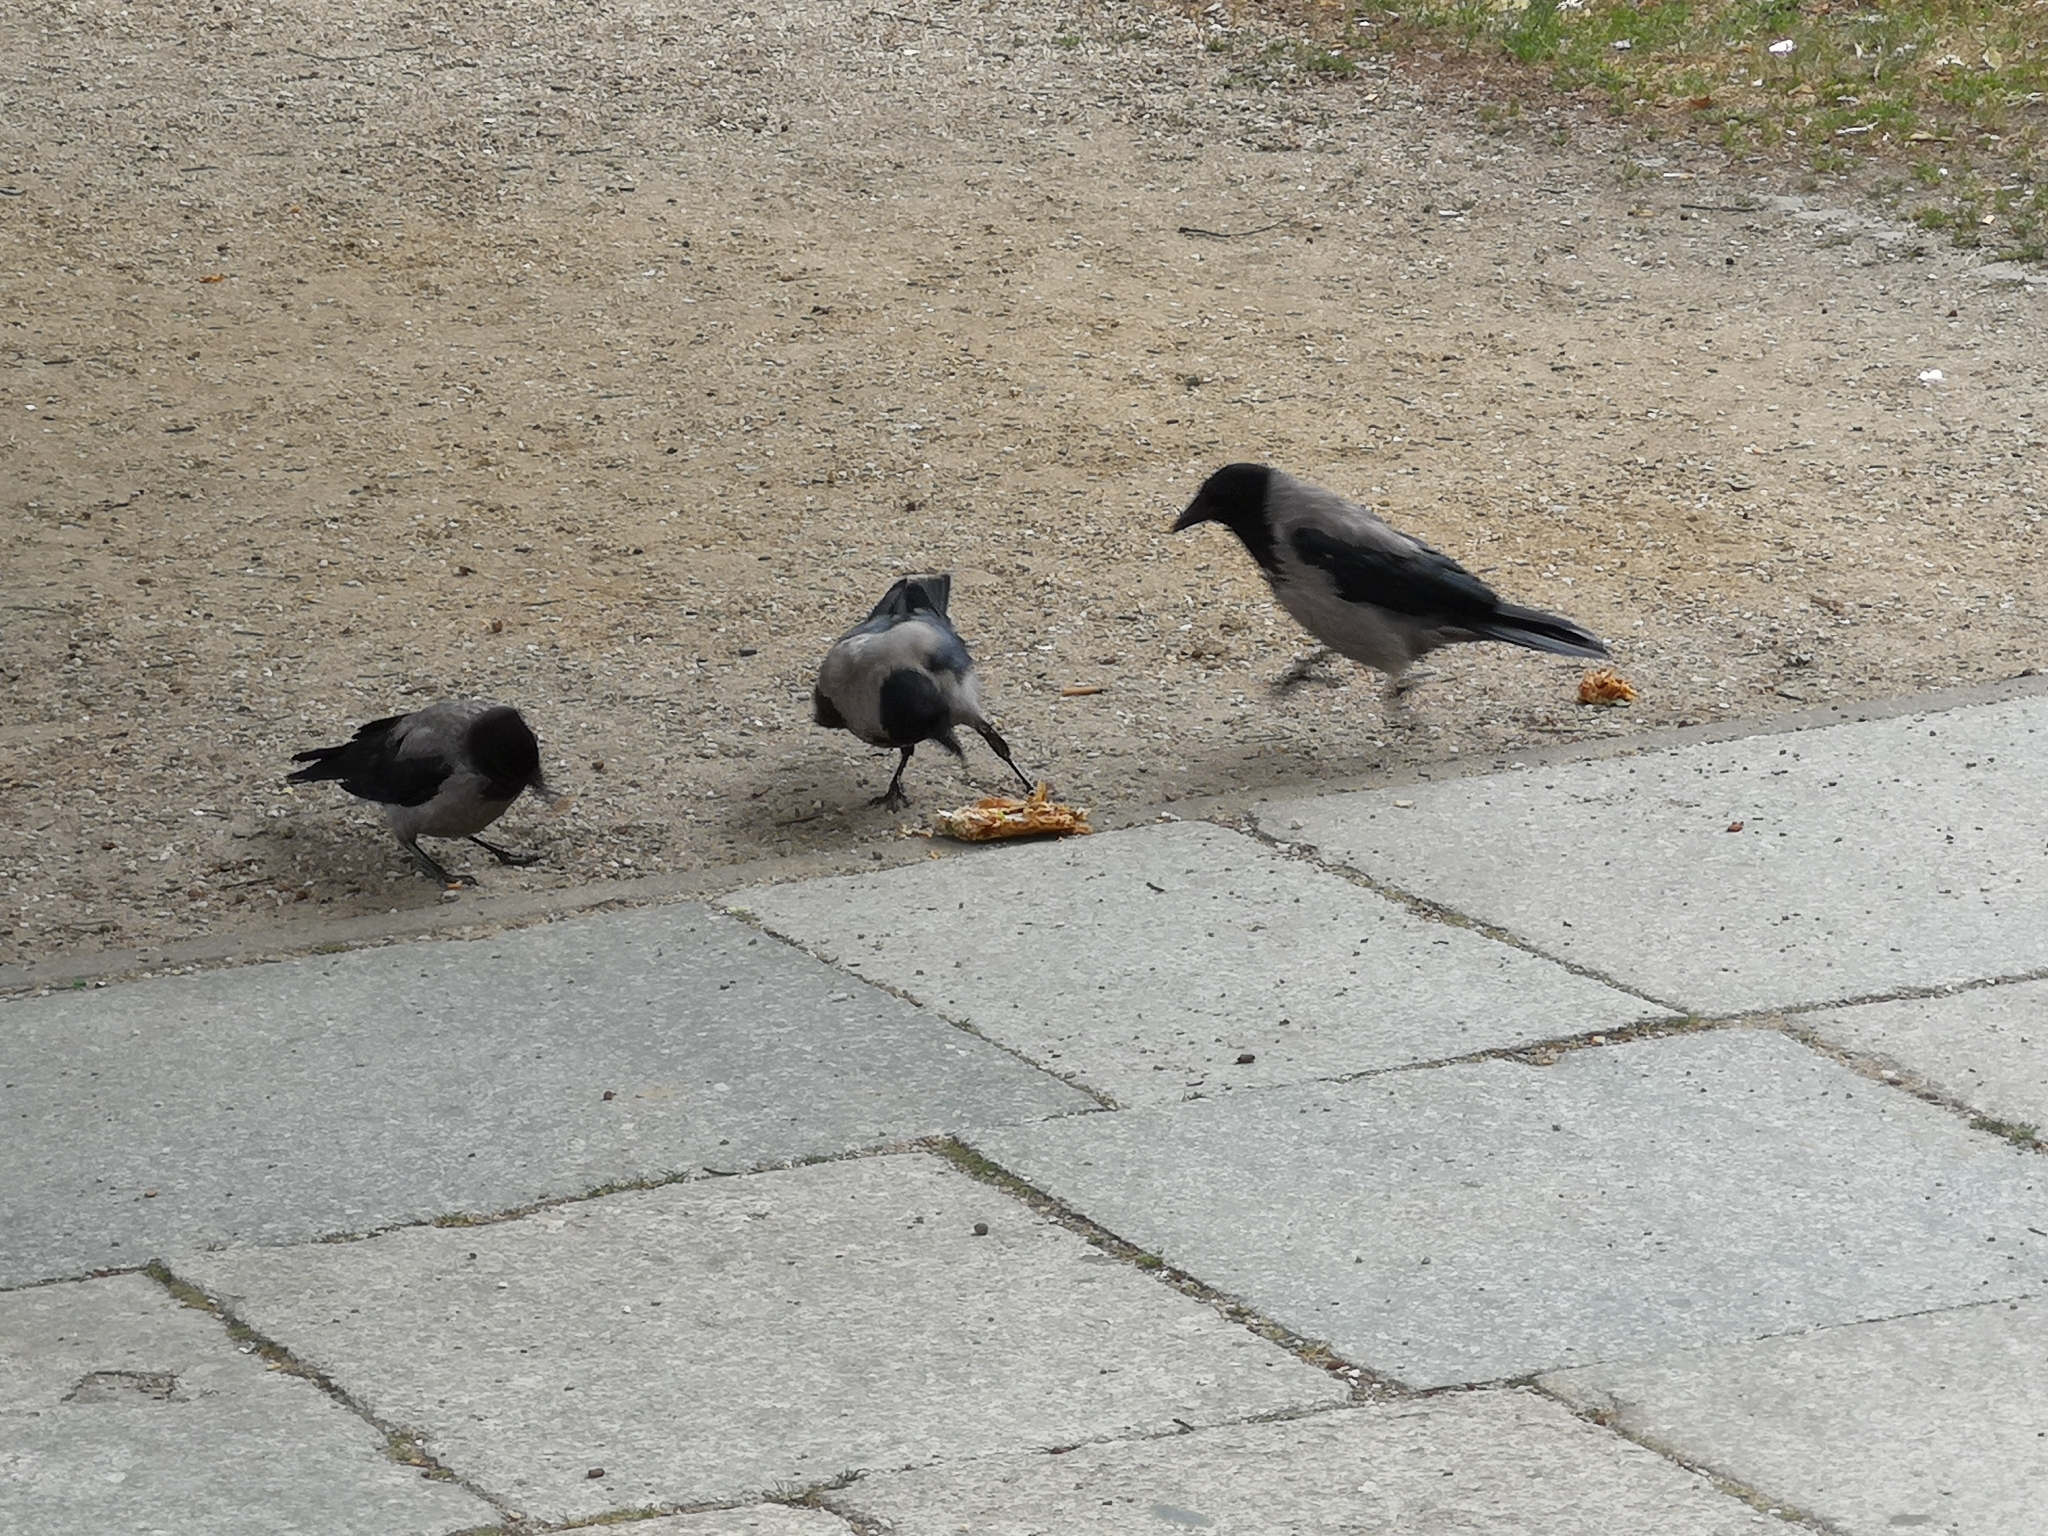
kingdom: Animalia
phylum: Chordata
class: Aves
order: Passeriformes
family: Corvidae
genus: Corvus
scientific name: Corvus cornix
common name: Hooded crow
